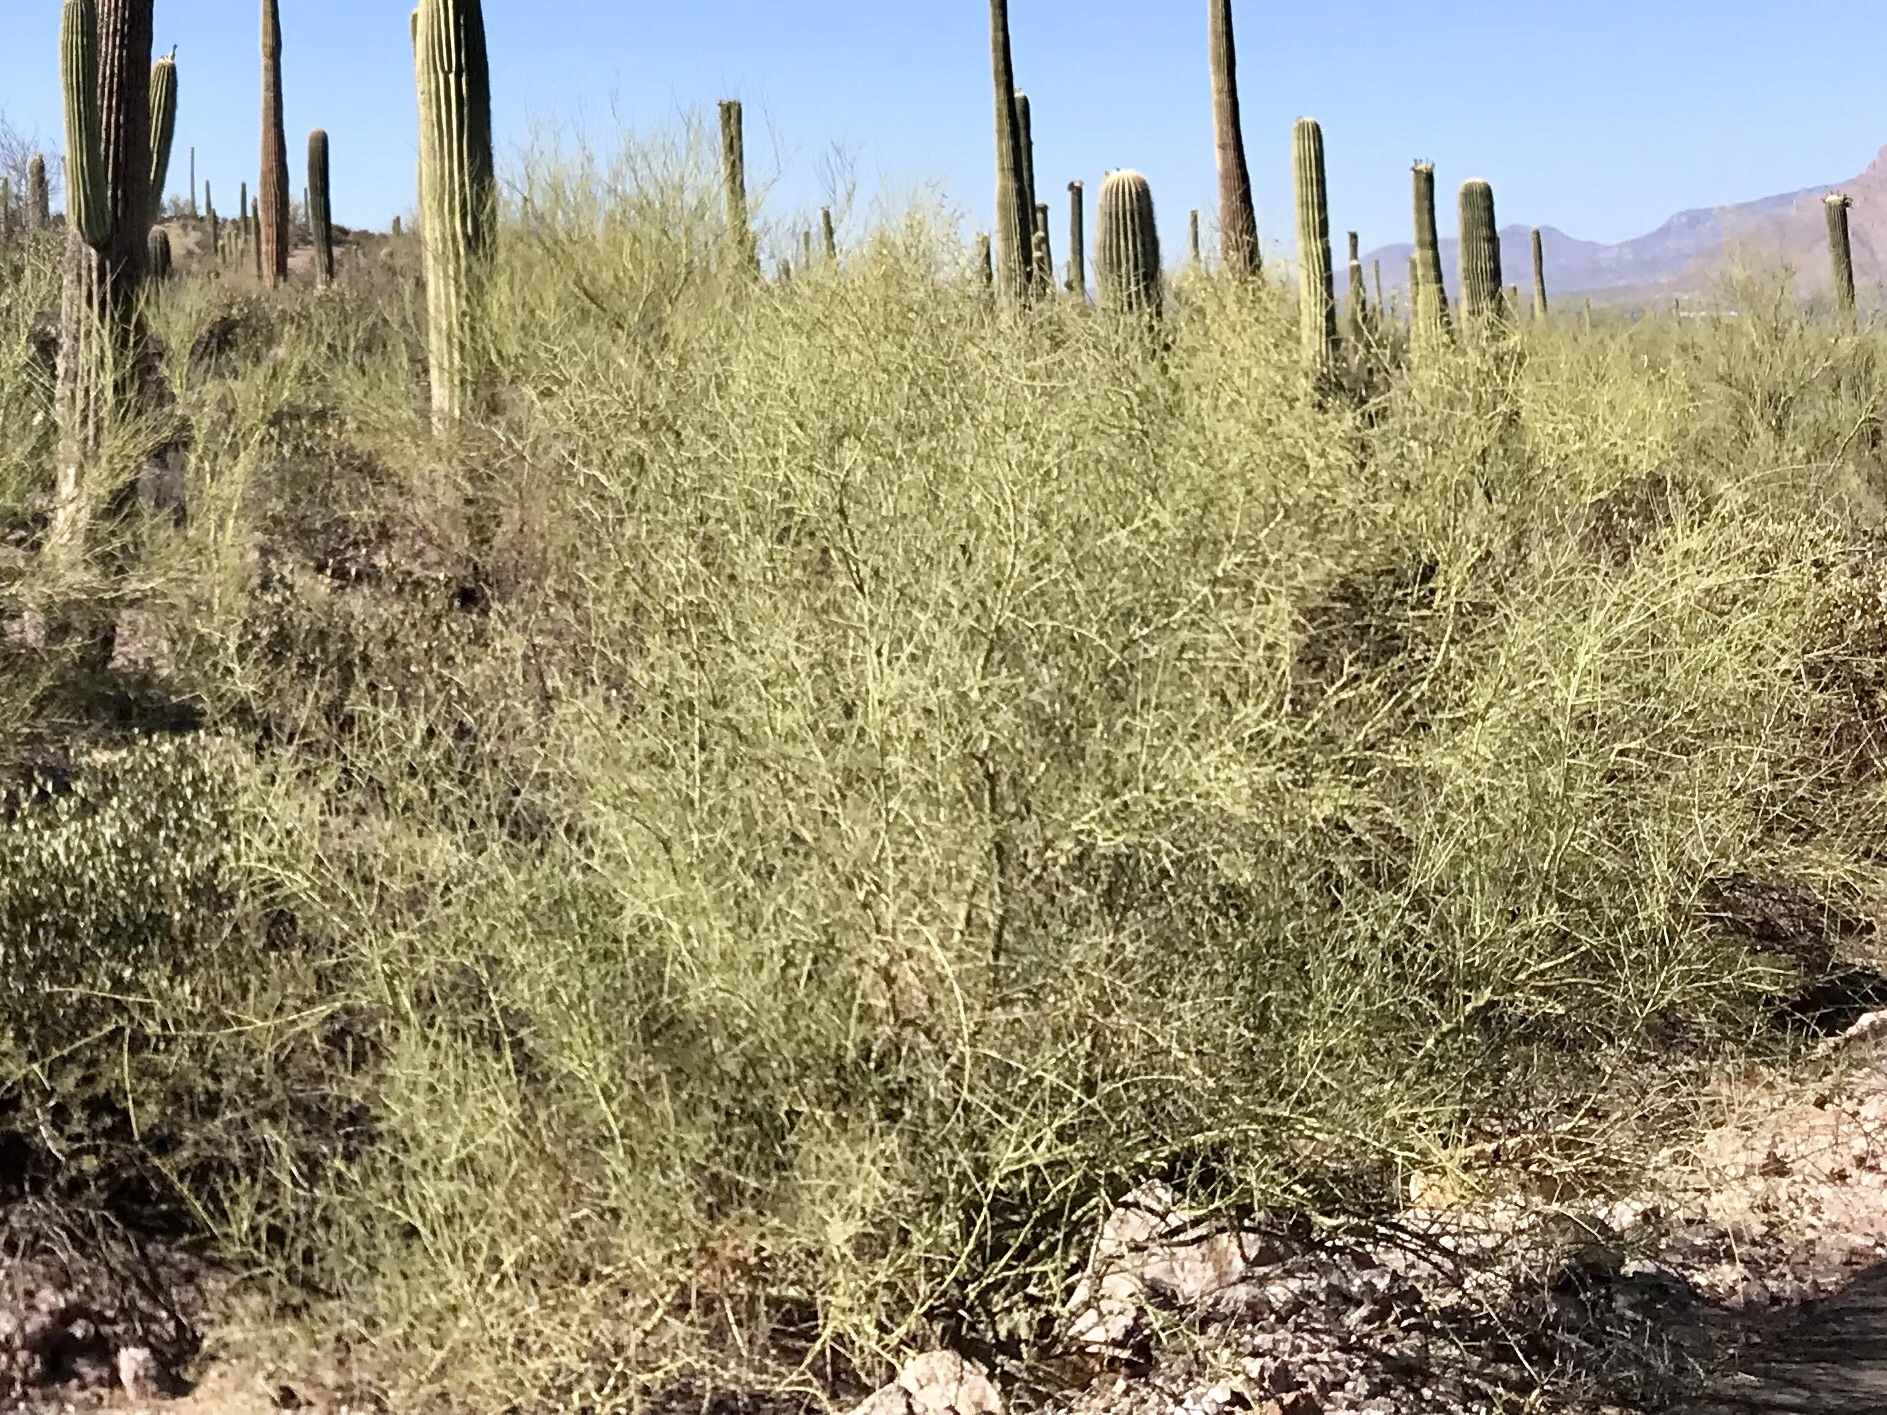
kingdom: Plantae
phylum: Tracheophyta
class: Magnoliopsida
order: Fabales
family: Fabaceae
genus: Parkinsonia
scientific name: Parkinsonia microphylla
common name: Yellow paloverde
